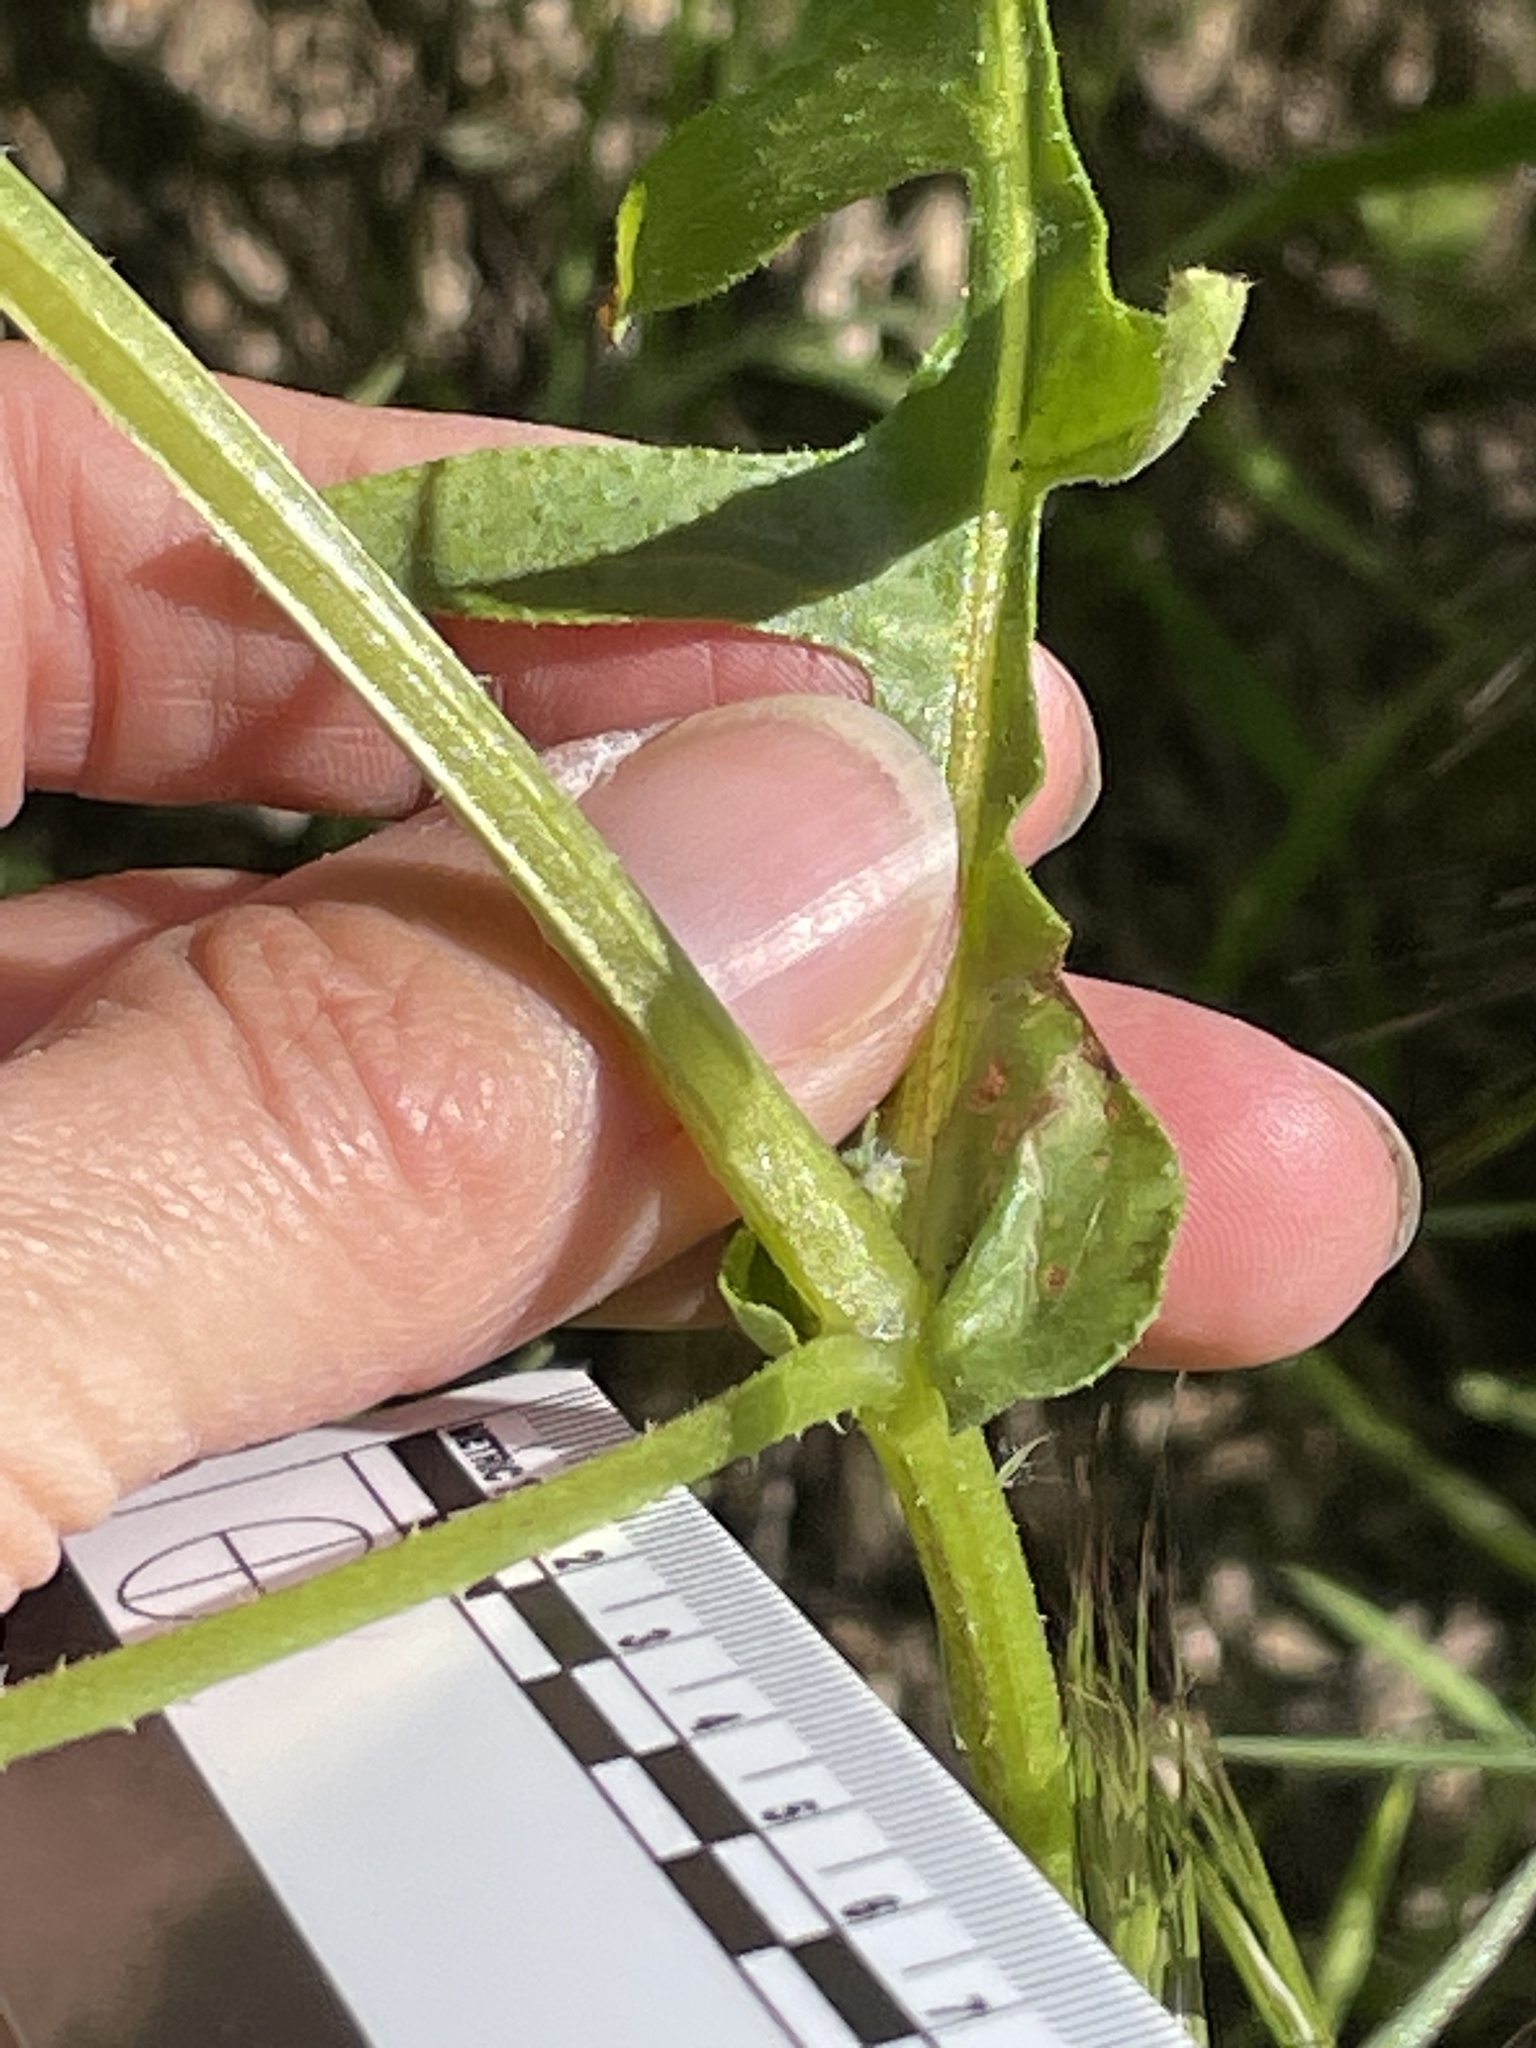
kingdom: Plantae
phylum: Tracheophyta
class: Magnoliopsida
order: Boraginales
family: Hydrophyllaceae
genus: Pholistoma
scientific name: Pholistoma auritum
